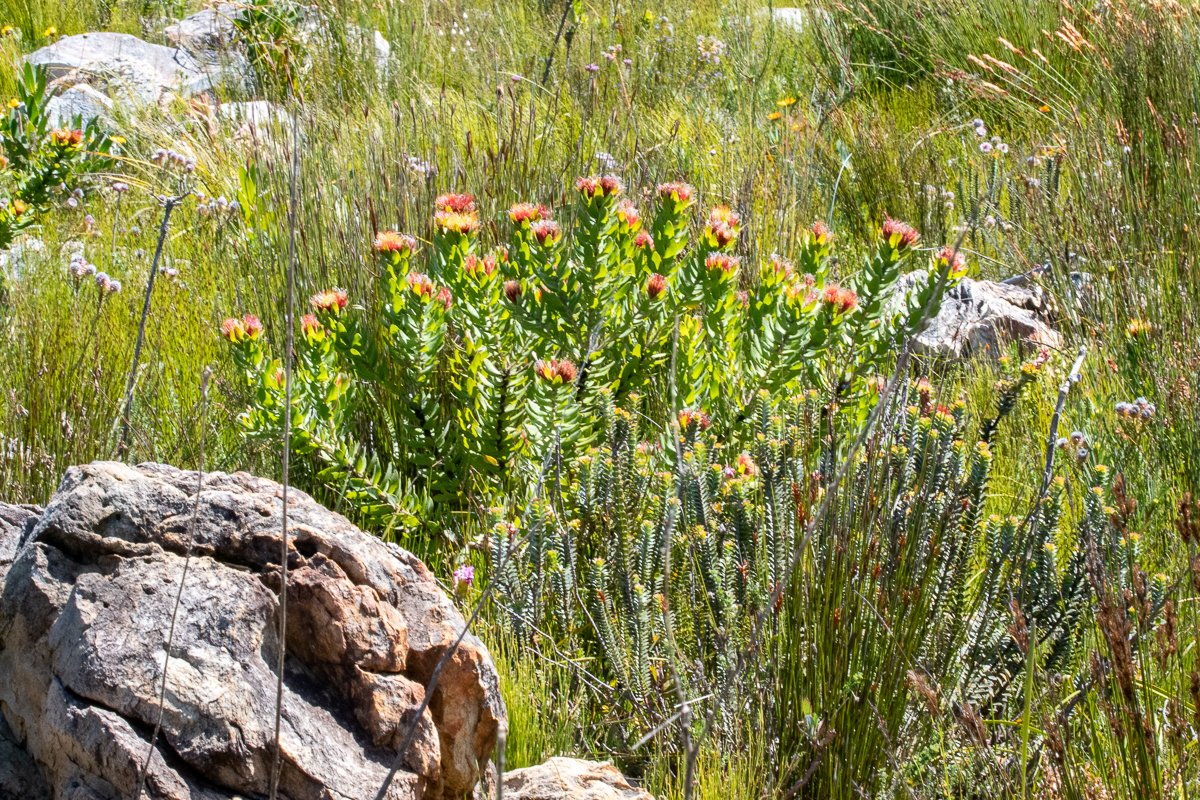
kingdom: Plantae
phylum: Tracheophyta
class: Magnoliopsida
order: Proteales
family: Proteaceae
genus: Leucospermum
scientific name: Leucospermum oleifolium
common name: Matches
